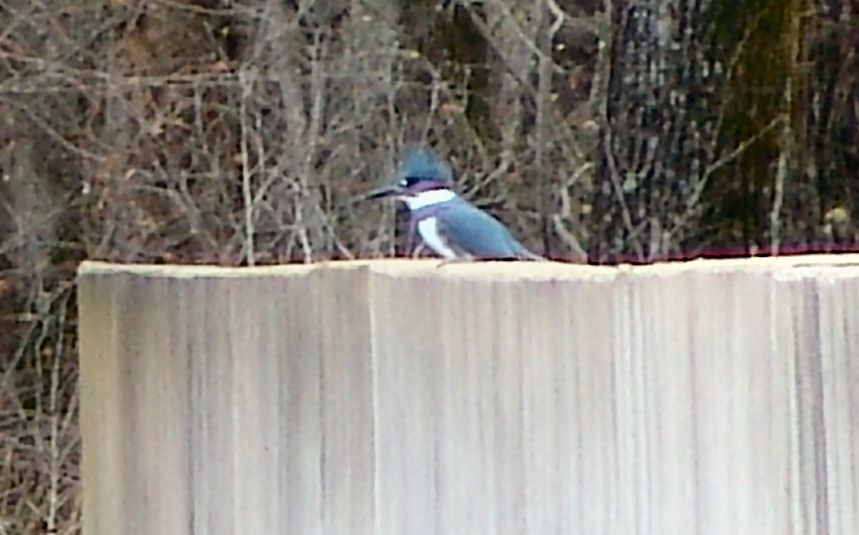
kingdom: Animalia
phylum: Chordata
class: Aves
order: Coraciiformes
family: Alcedinidae
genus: Megaceryle
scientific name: Megaceryle alcyon
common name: Belted kingfisher
